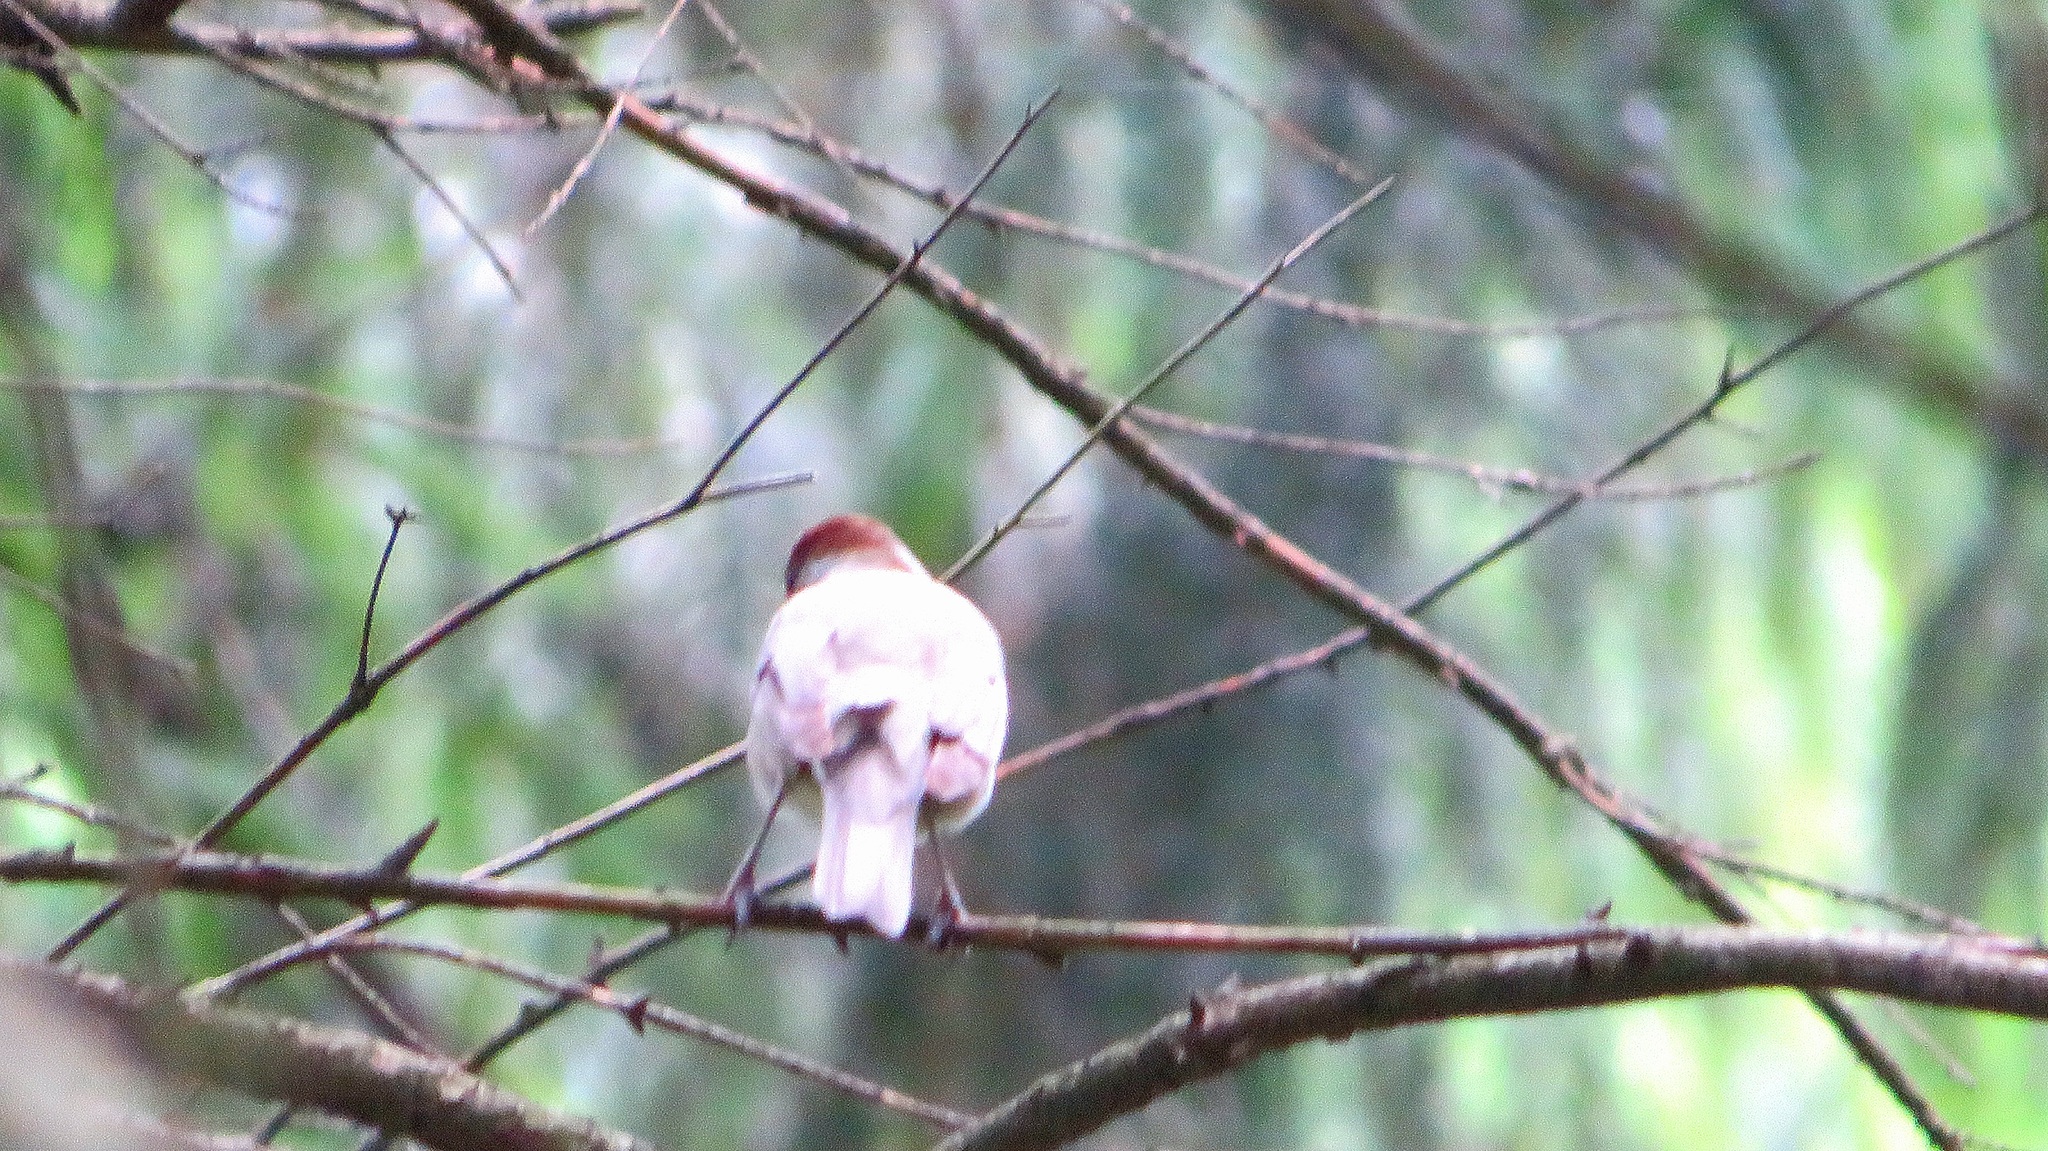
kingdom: Animalia
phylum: Chordata
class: Aves
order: Passeriformes
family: Sylviidae
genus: Sylvia
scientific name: Sylvia atricapilla
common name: Eurasian blackcap
